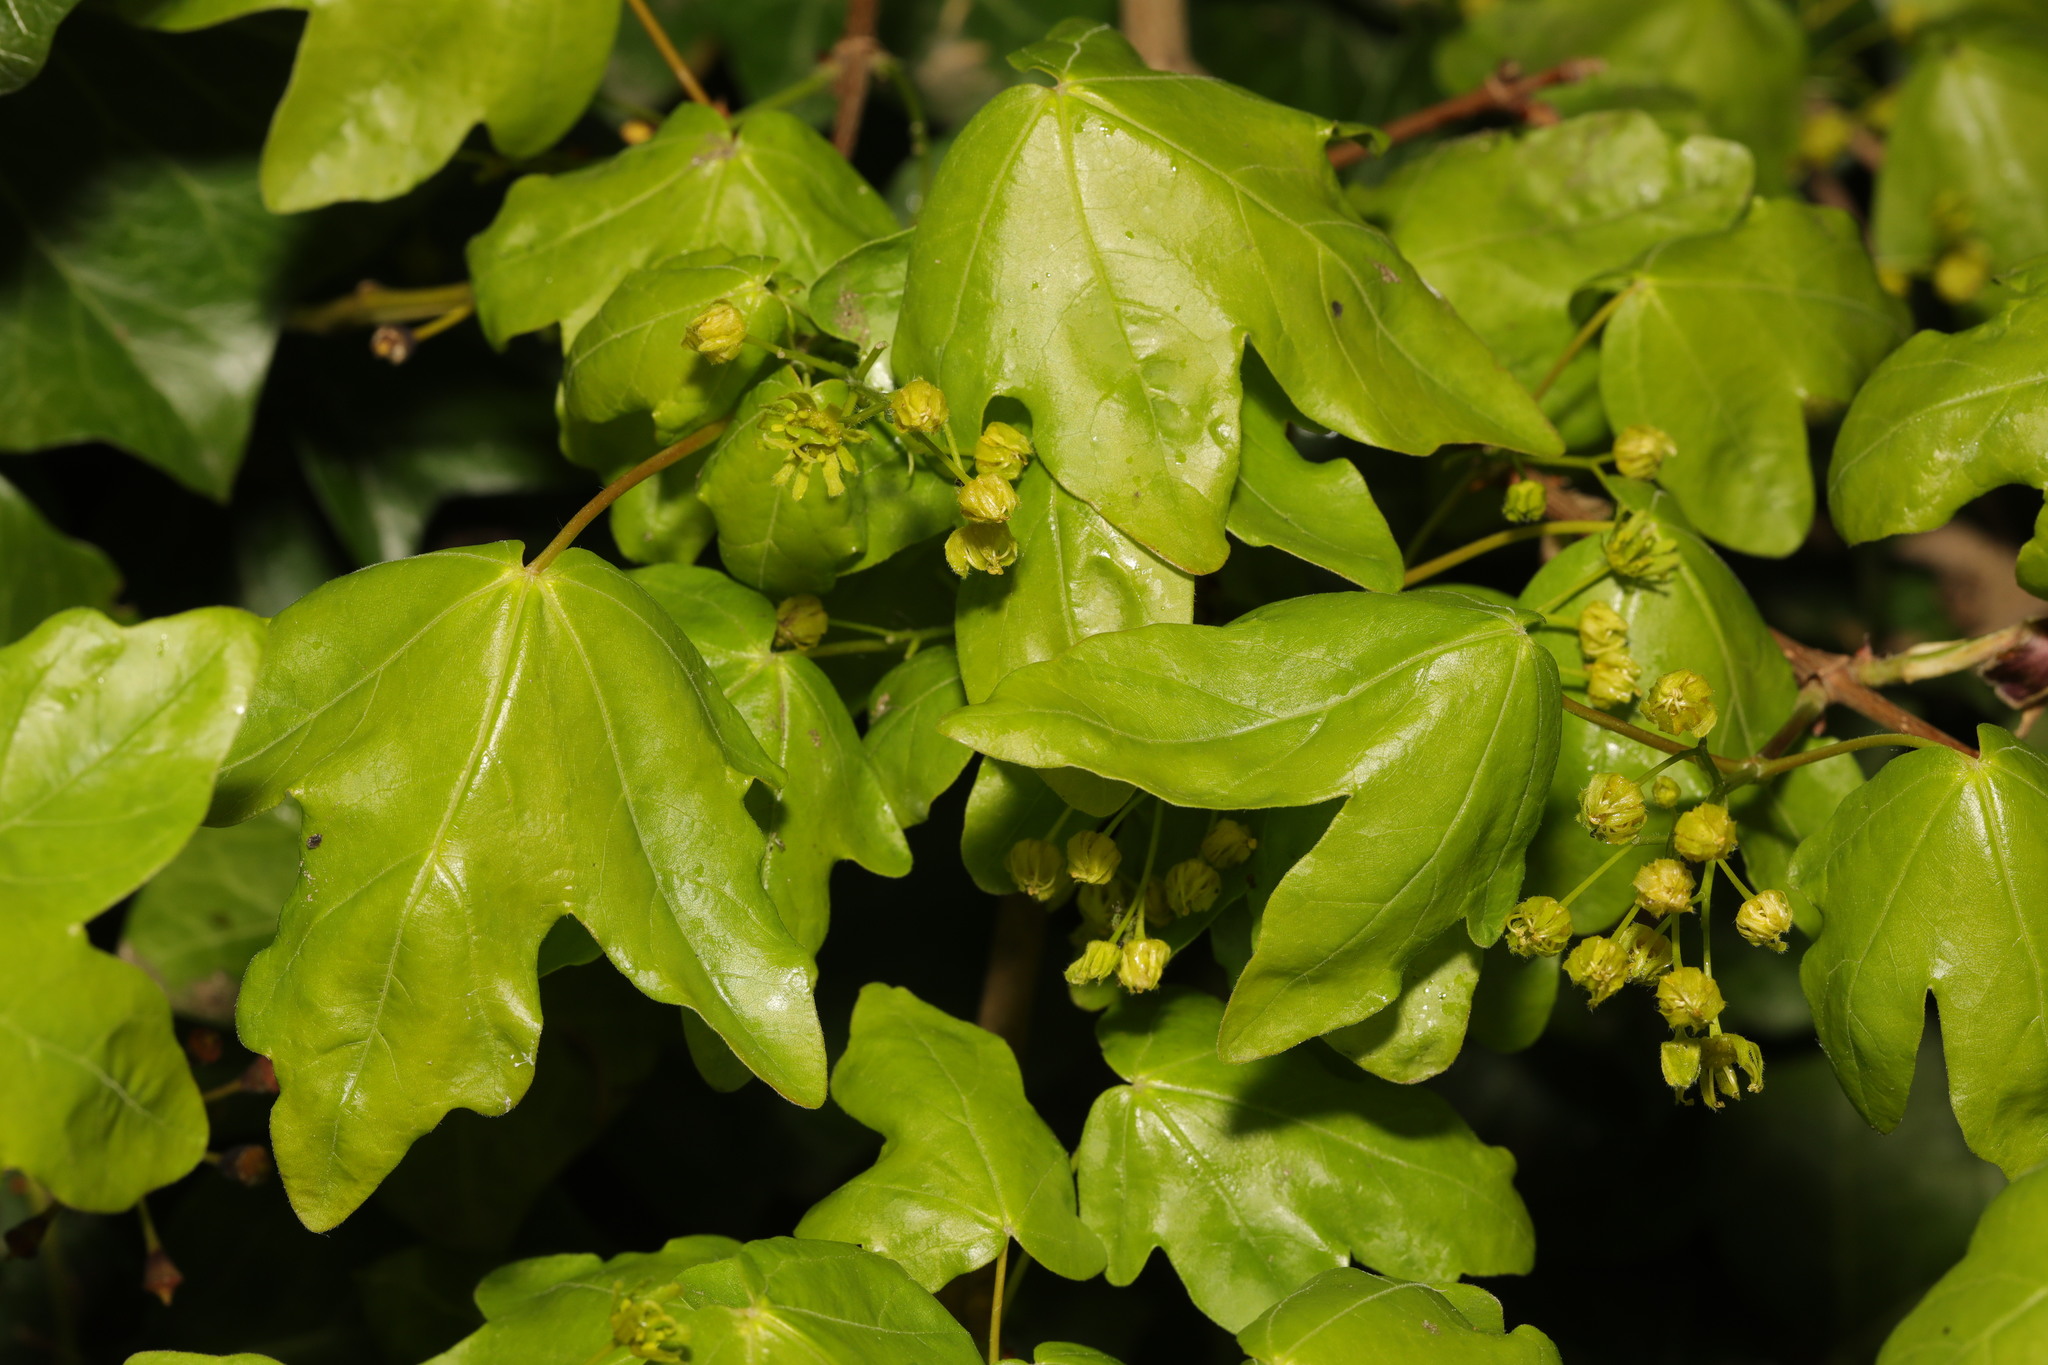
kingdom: Plantae
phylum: Tracheophyta
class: Magnoliopsida
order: Sapindales
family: Sapindaceae
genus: Acer
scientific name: Acer campestre
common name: Field maple
